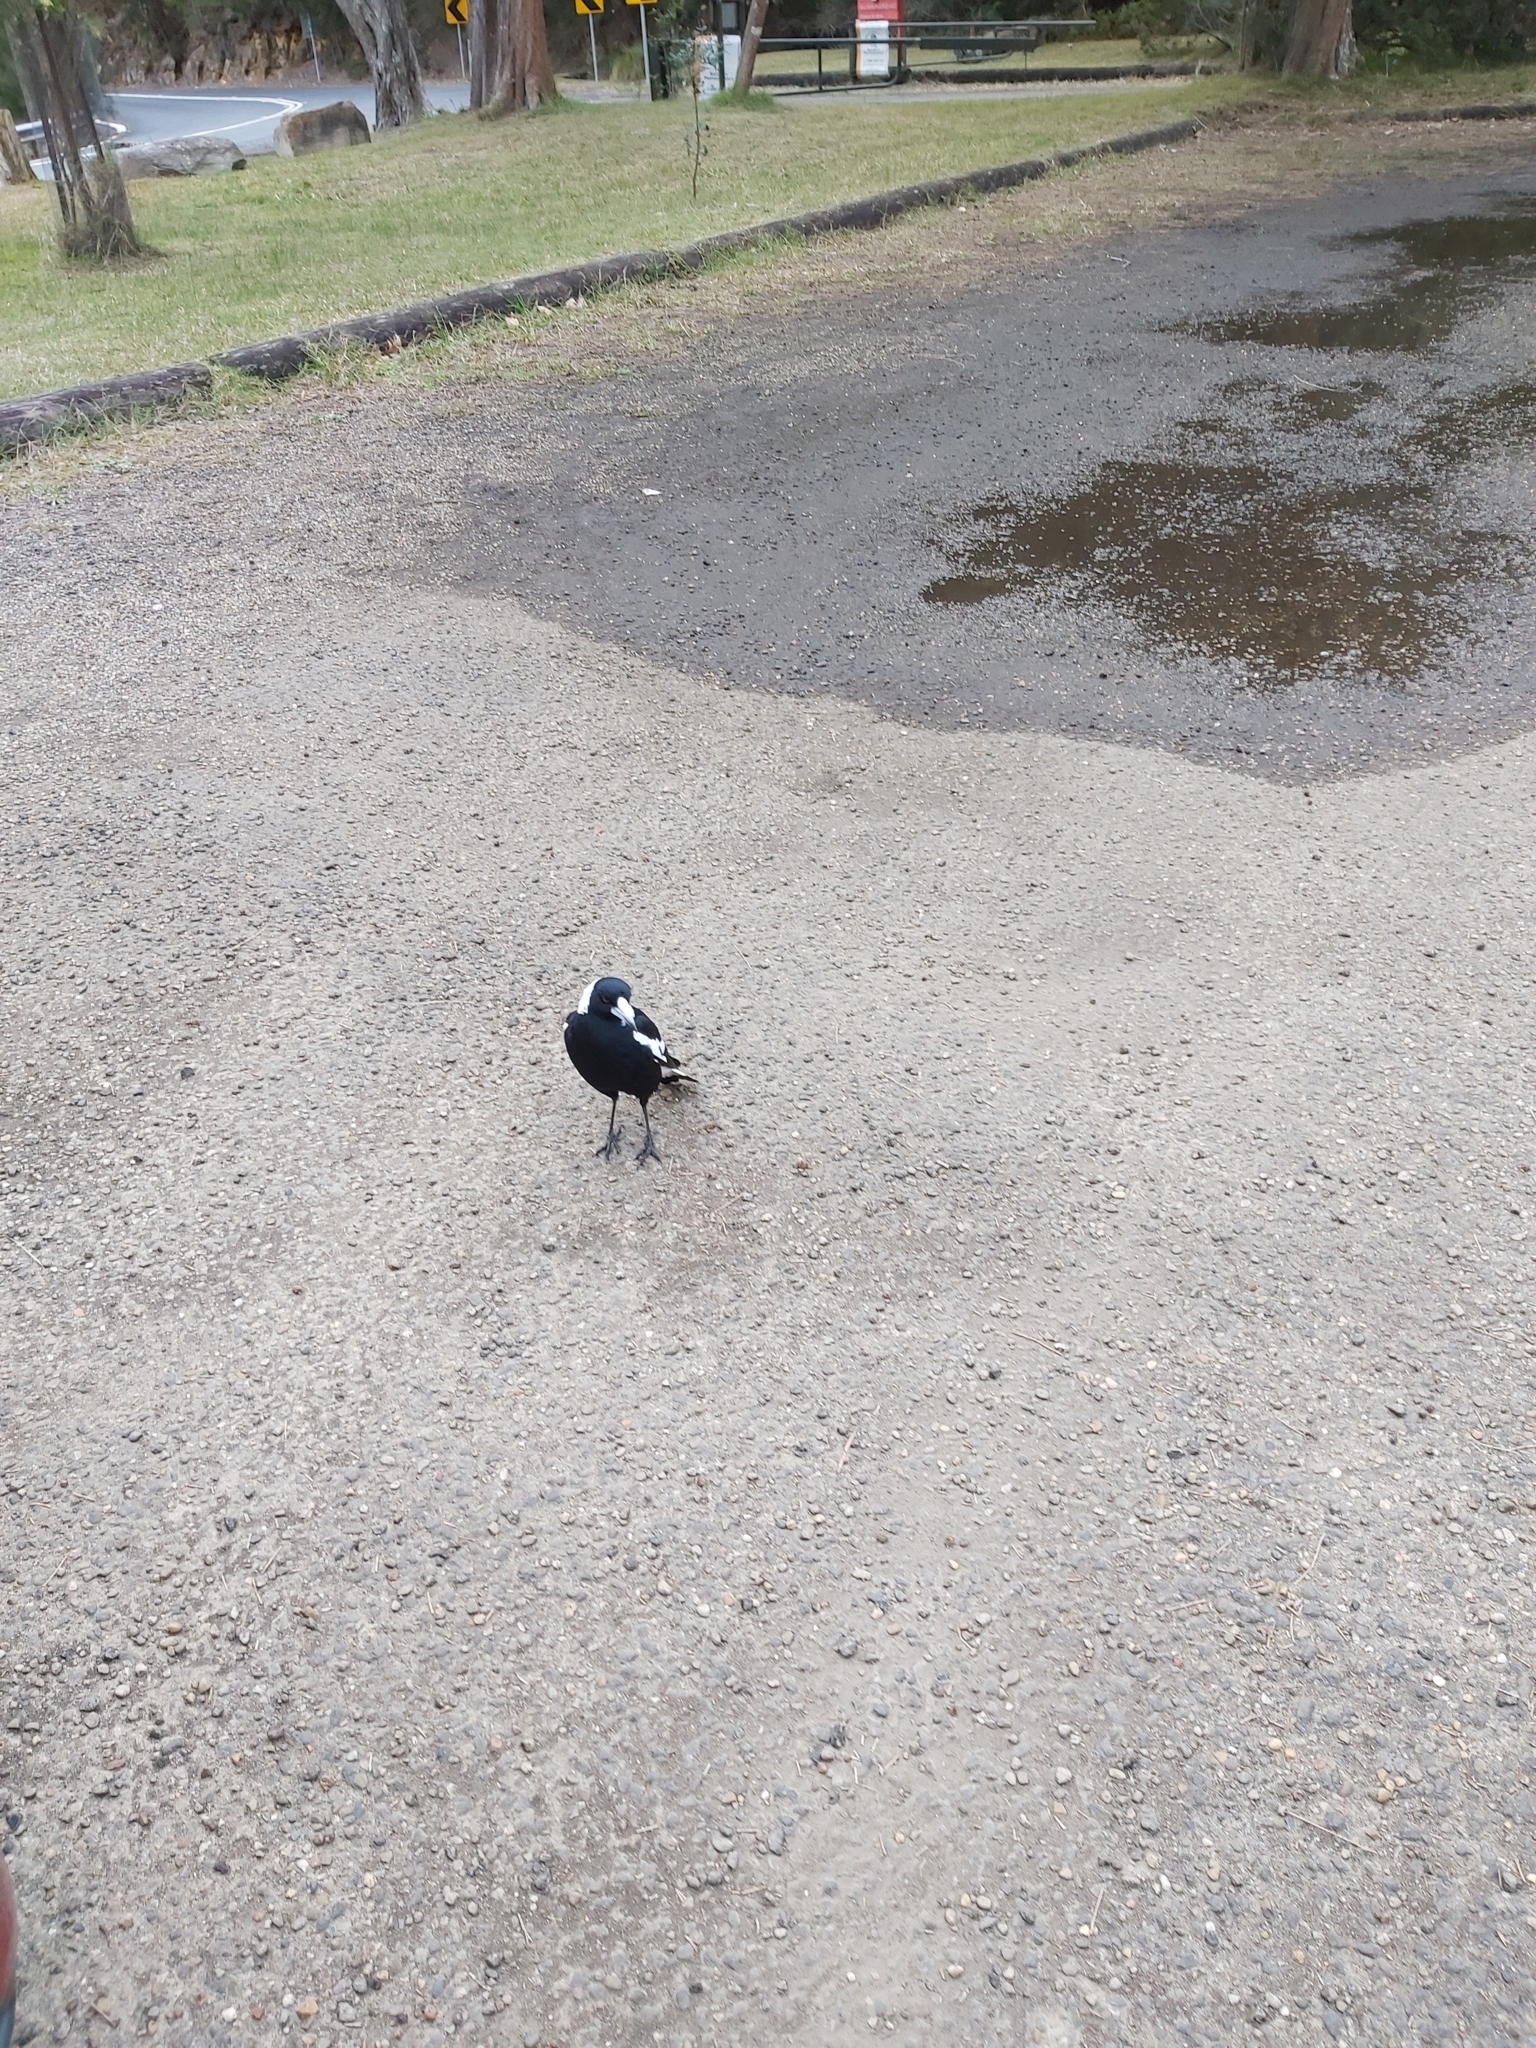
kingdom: Animalia
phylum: Chordata
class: Aves
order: Passeriformes
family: Cracticidae
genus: Gymnorhina
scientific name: Gymnorhina tibicen
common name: Australian magpie
